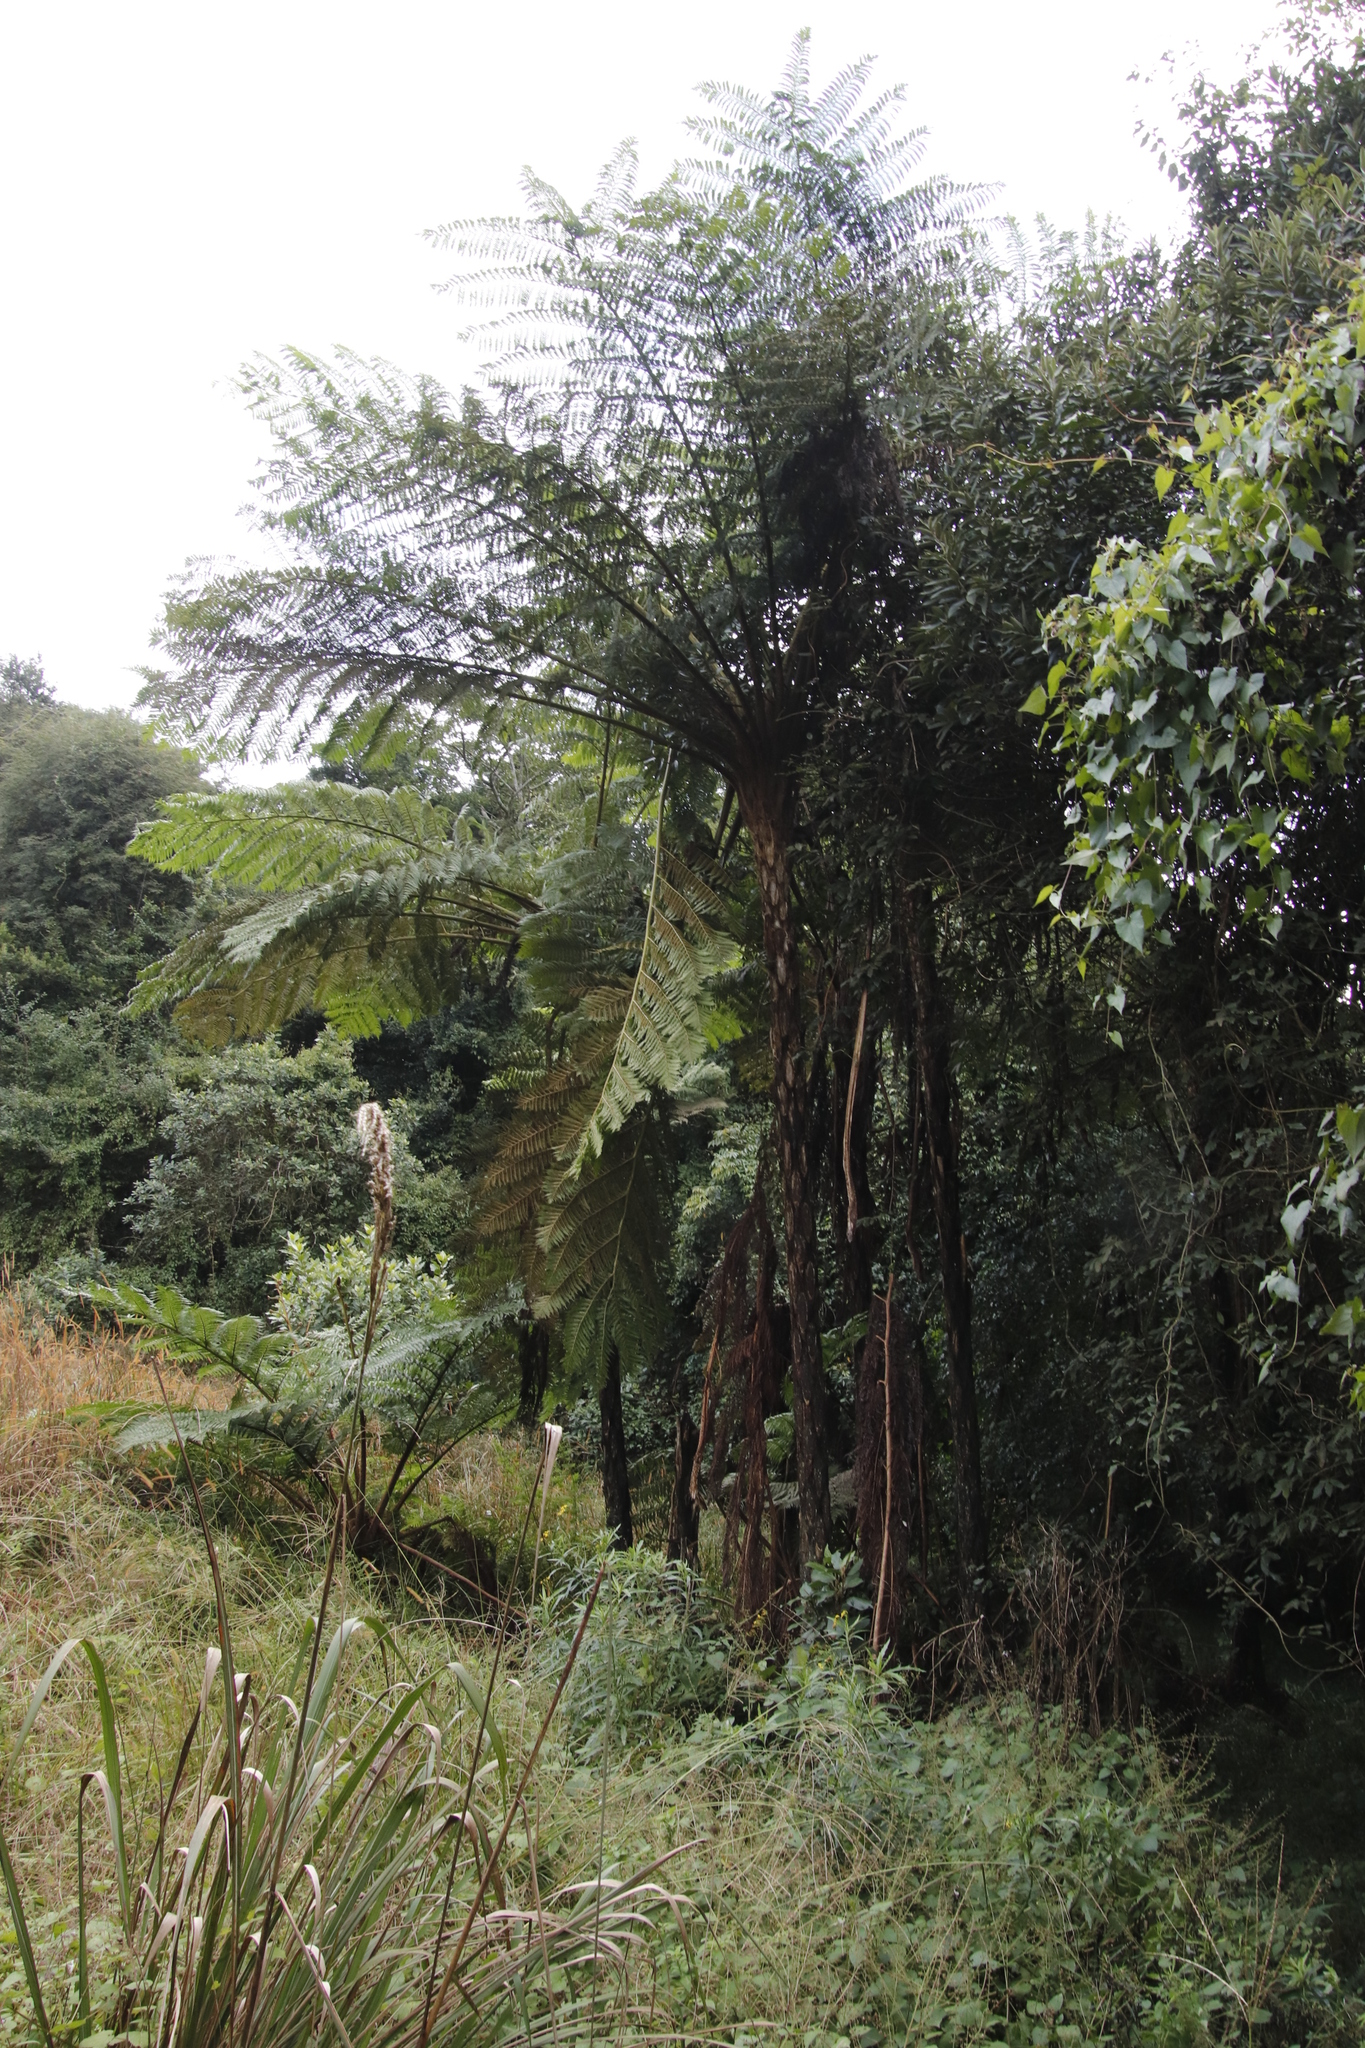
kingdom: Plantae
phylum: Tracheophyta
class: Polypodiopsida
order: Cyatheales
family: Cyatheaceae
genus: Sphaeropteris
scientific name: Sphaeropteris cooperi
